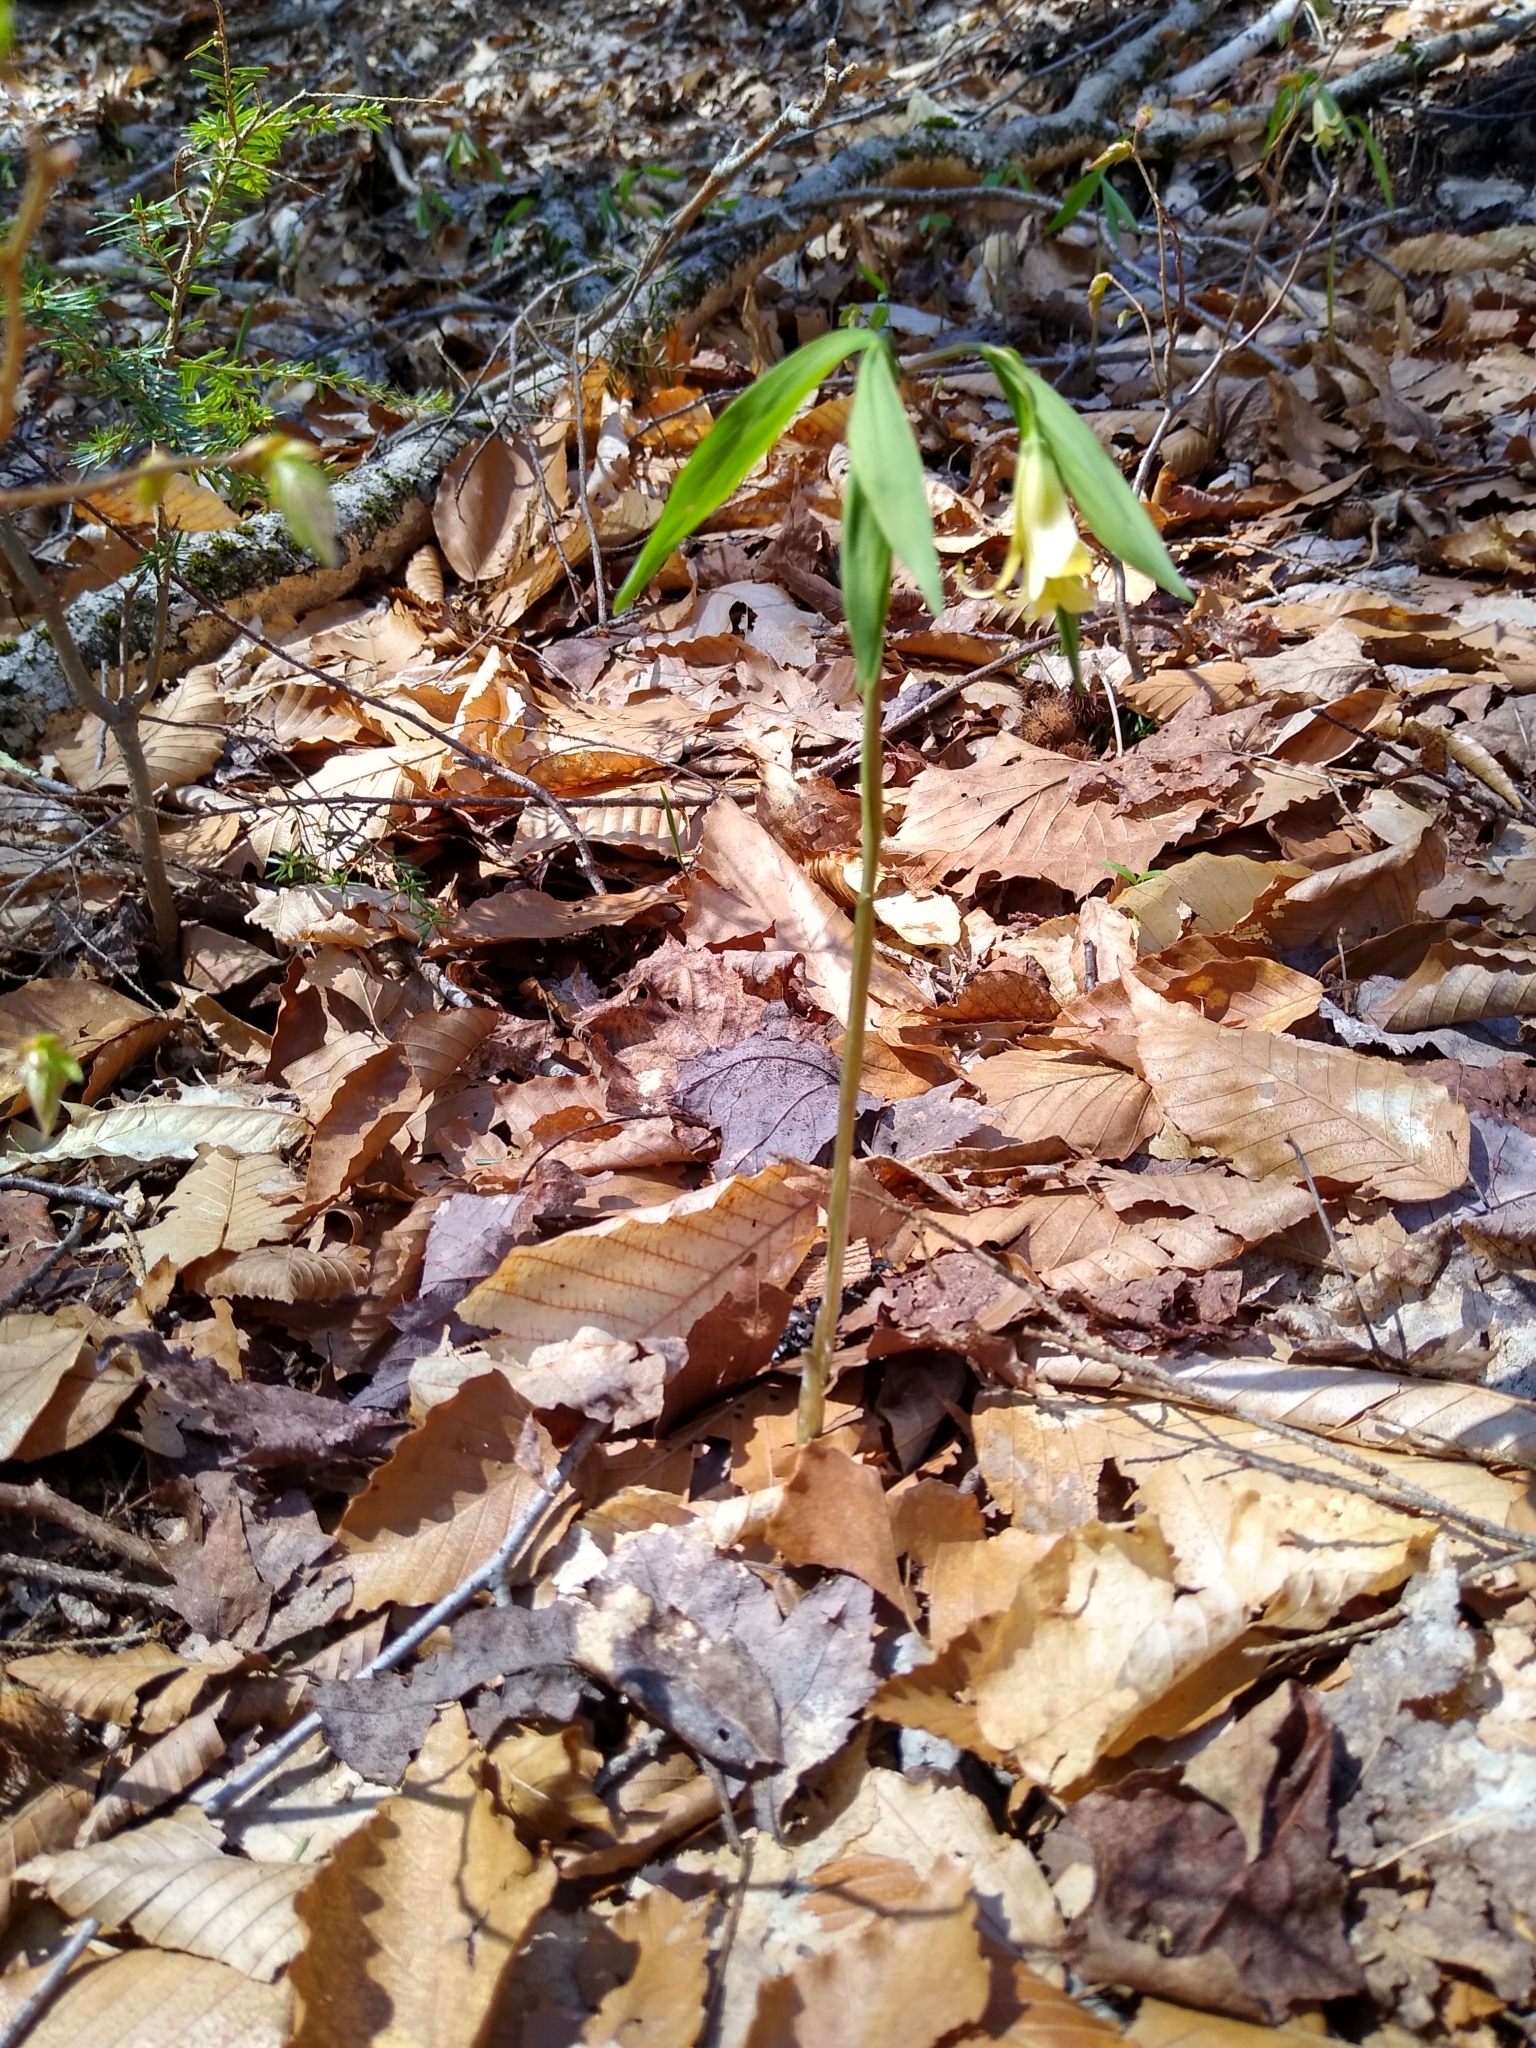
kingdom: Plantae
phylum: Tracheophyta
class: Liliopsida
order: Liliales
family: Colchicaceae
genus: Uvularia
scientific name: Uvularia sessilifolia
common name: Straw-lily
